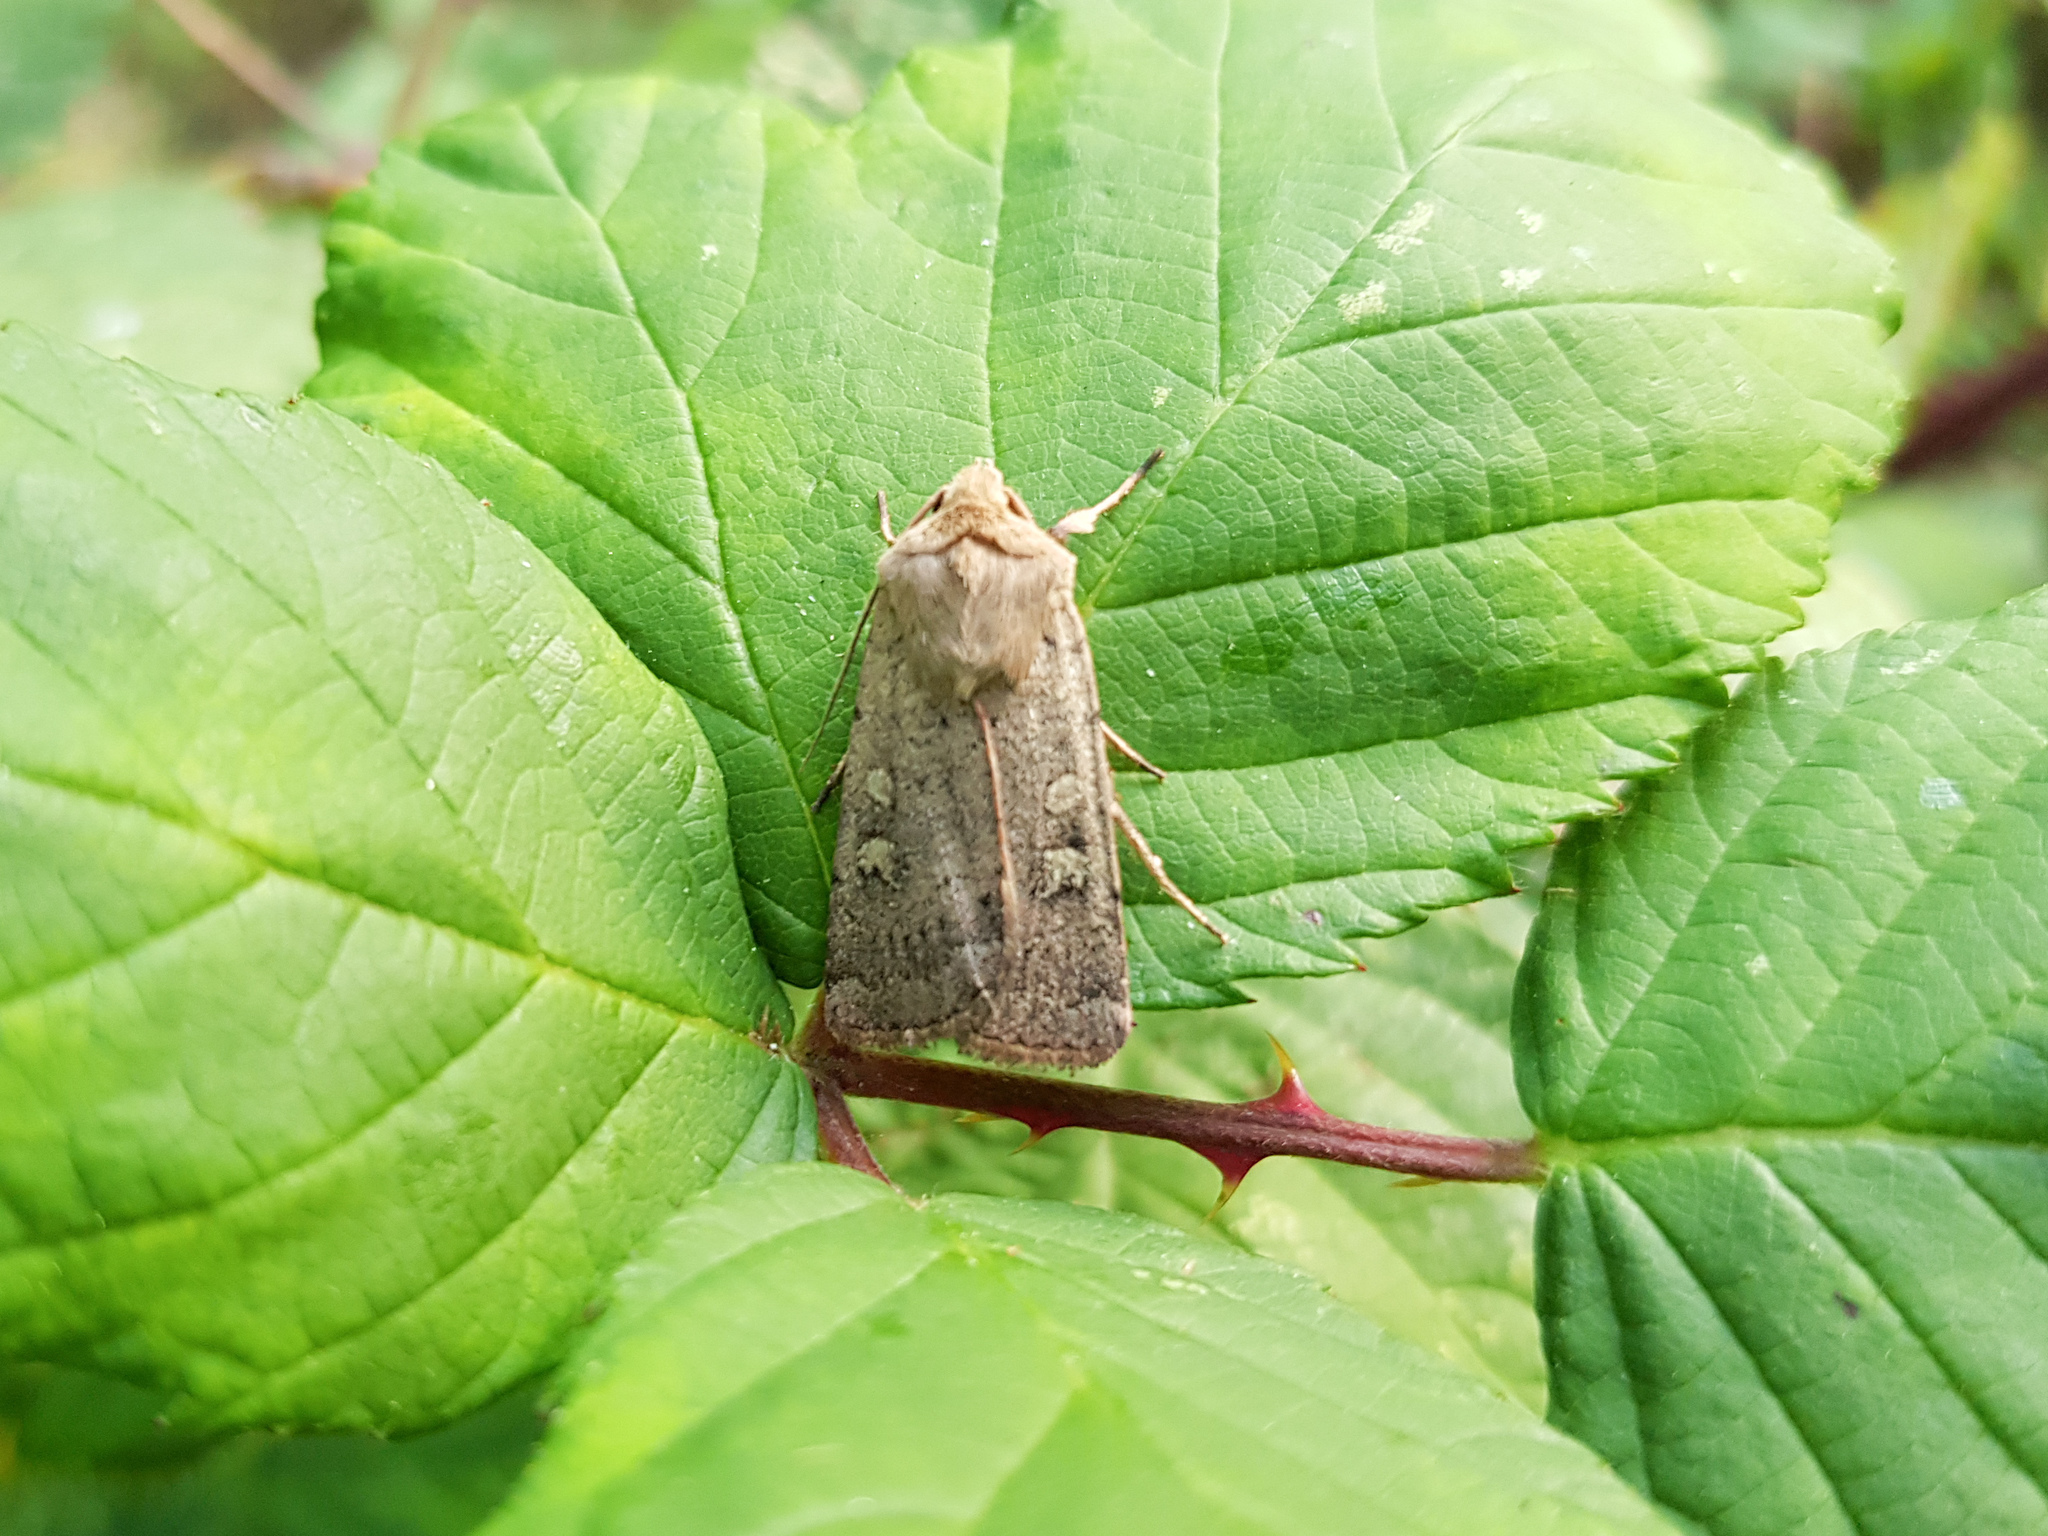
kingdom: Animalia
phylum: Arthropoda
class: Insecta
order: Lepidoptera
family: Noctuidae
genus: Xestia
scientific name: Xestia xanthographa
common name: Square-spot rustic
